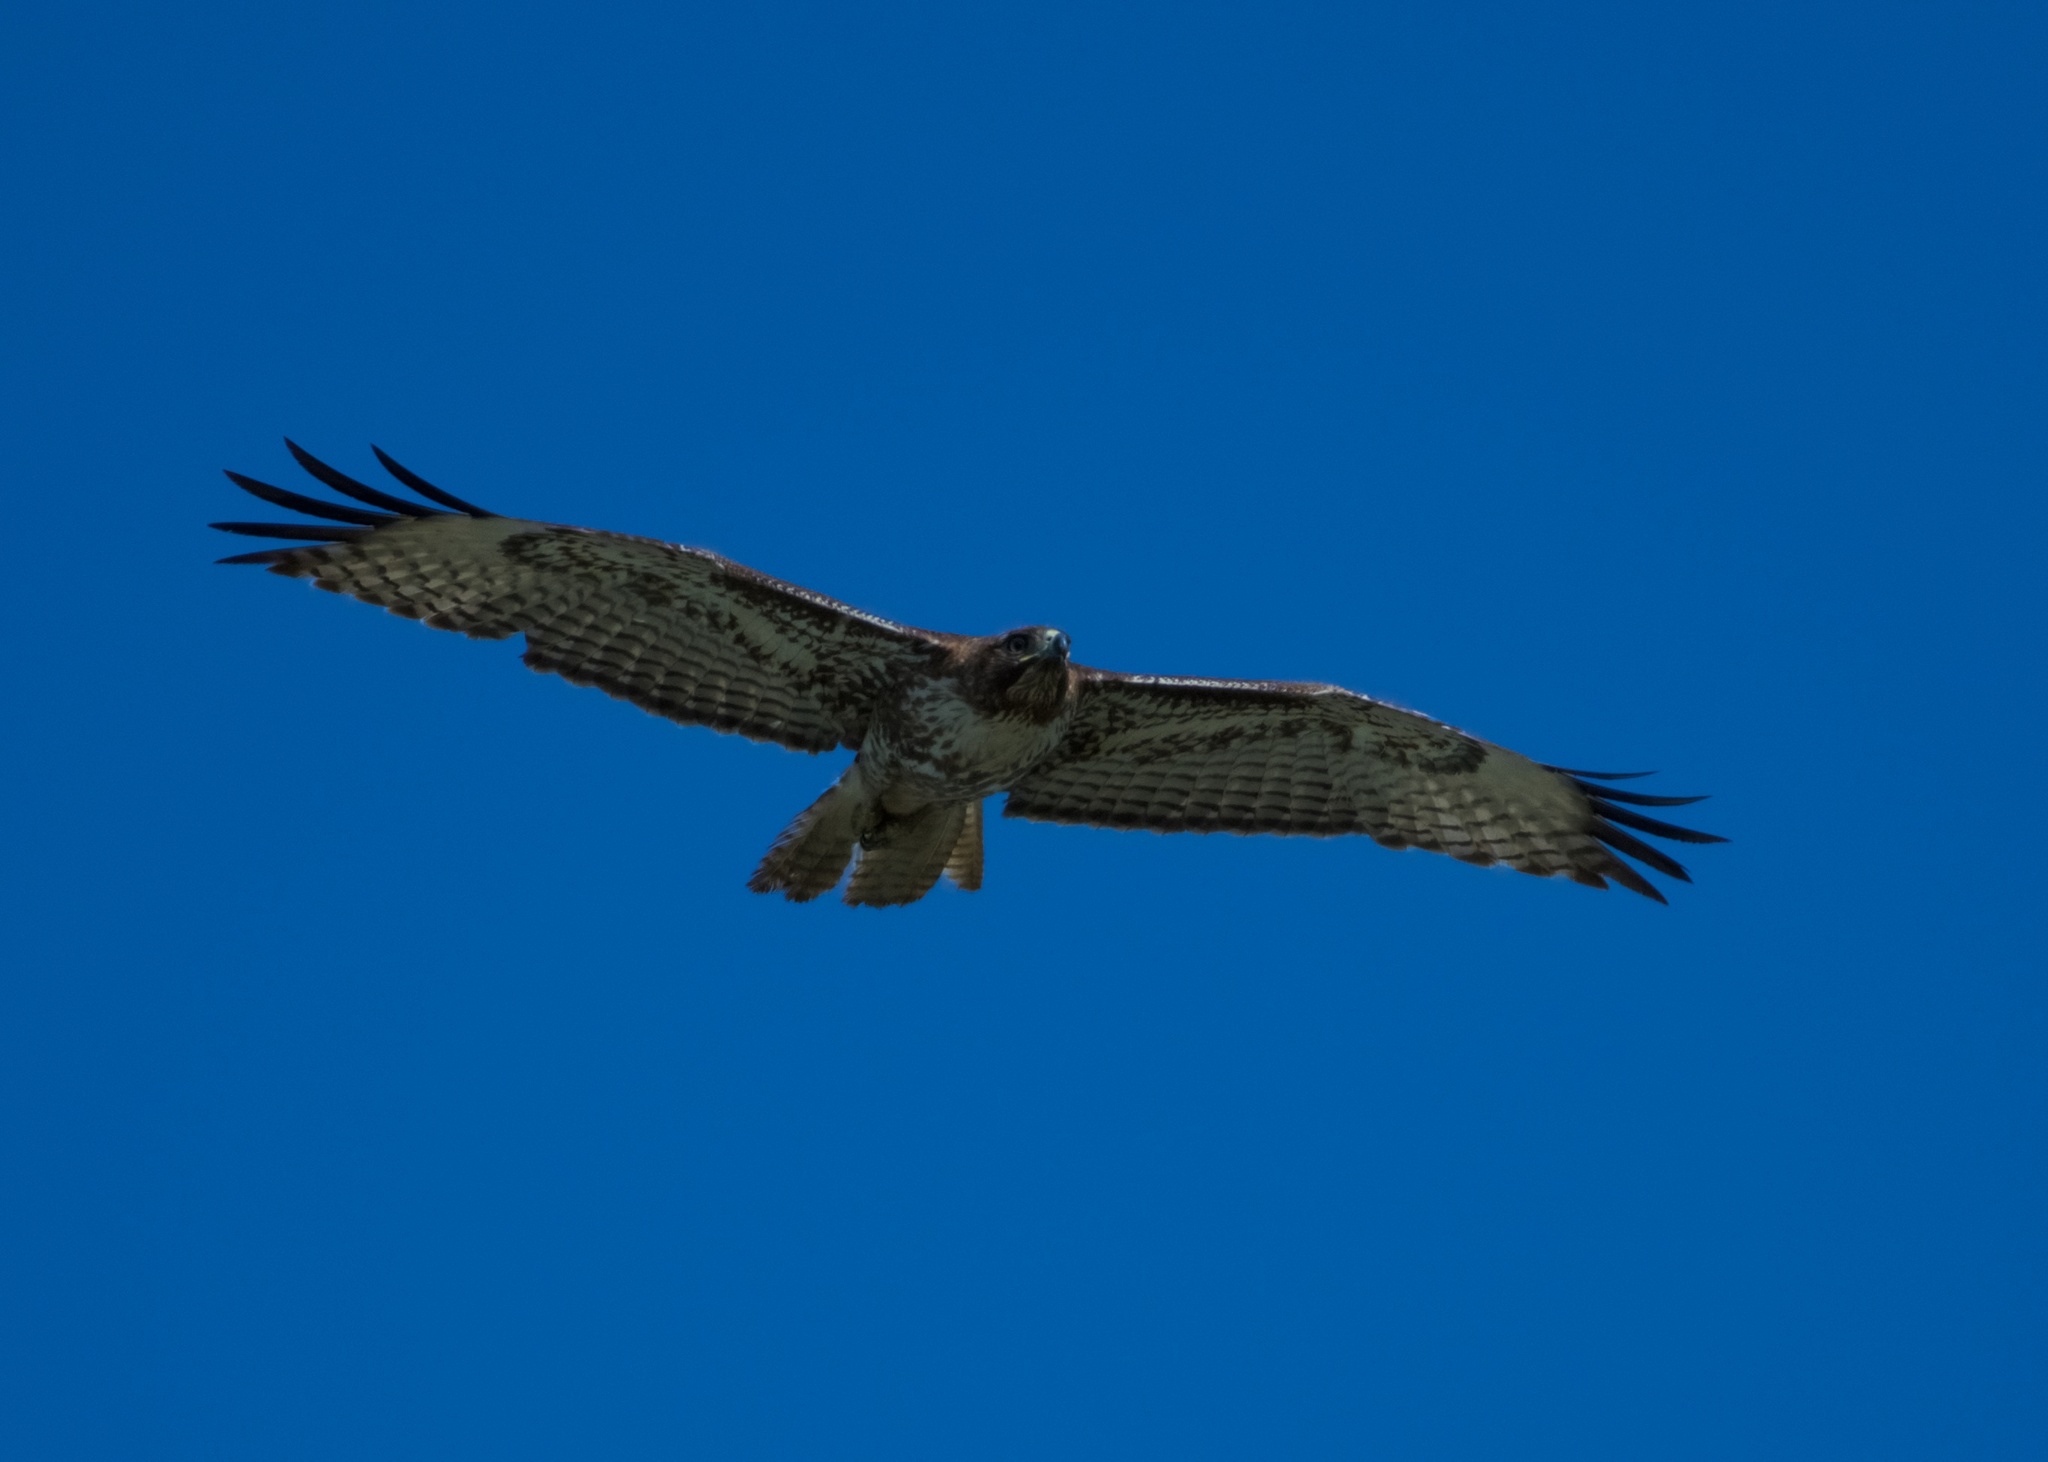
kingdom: Animalia
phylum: Chordata
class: Aves
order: Accipitriformes
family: Accipitridae
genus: Buteo
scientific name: Buteo jamaicensis
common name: Red-tailed hawk
